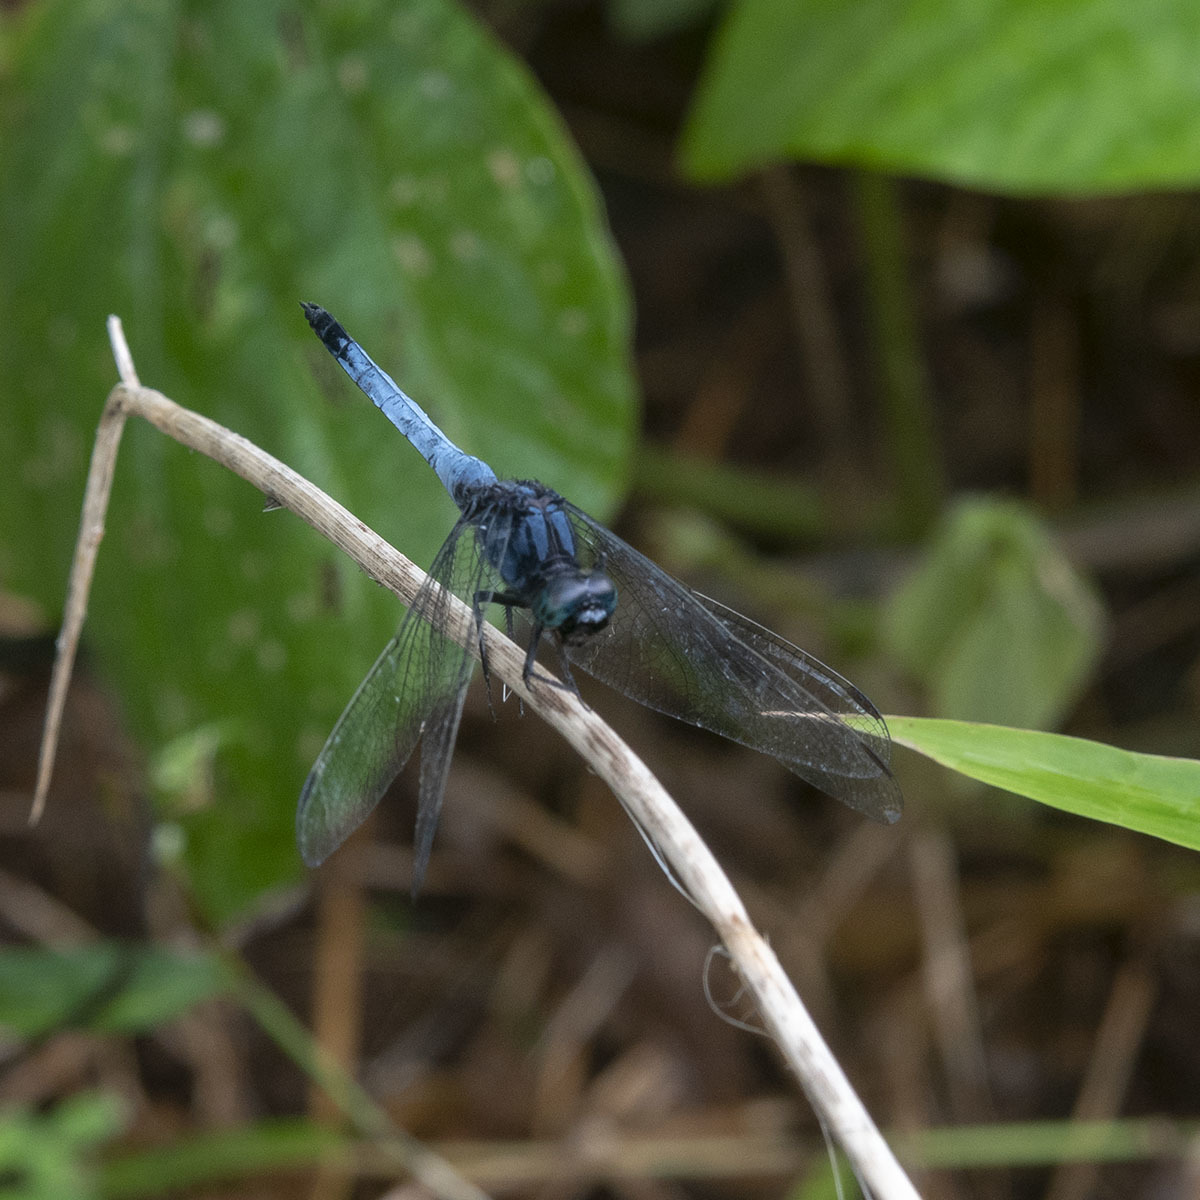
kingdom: Animalia
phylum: Arthropoda
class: Insecta
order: Odonata
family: Libellulidae
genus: Orthetrum
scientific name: Orthetrum glaucum
